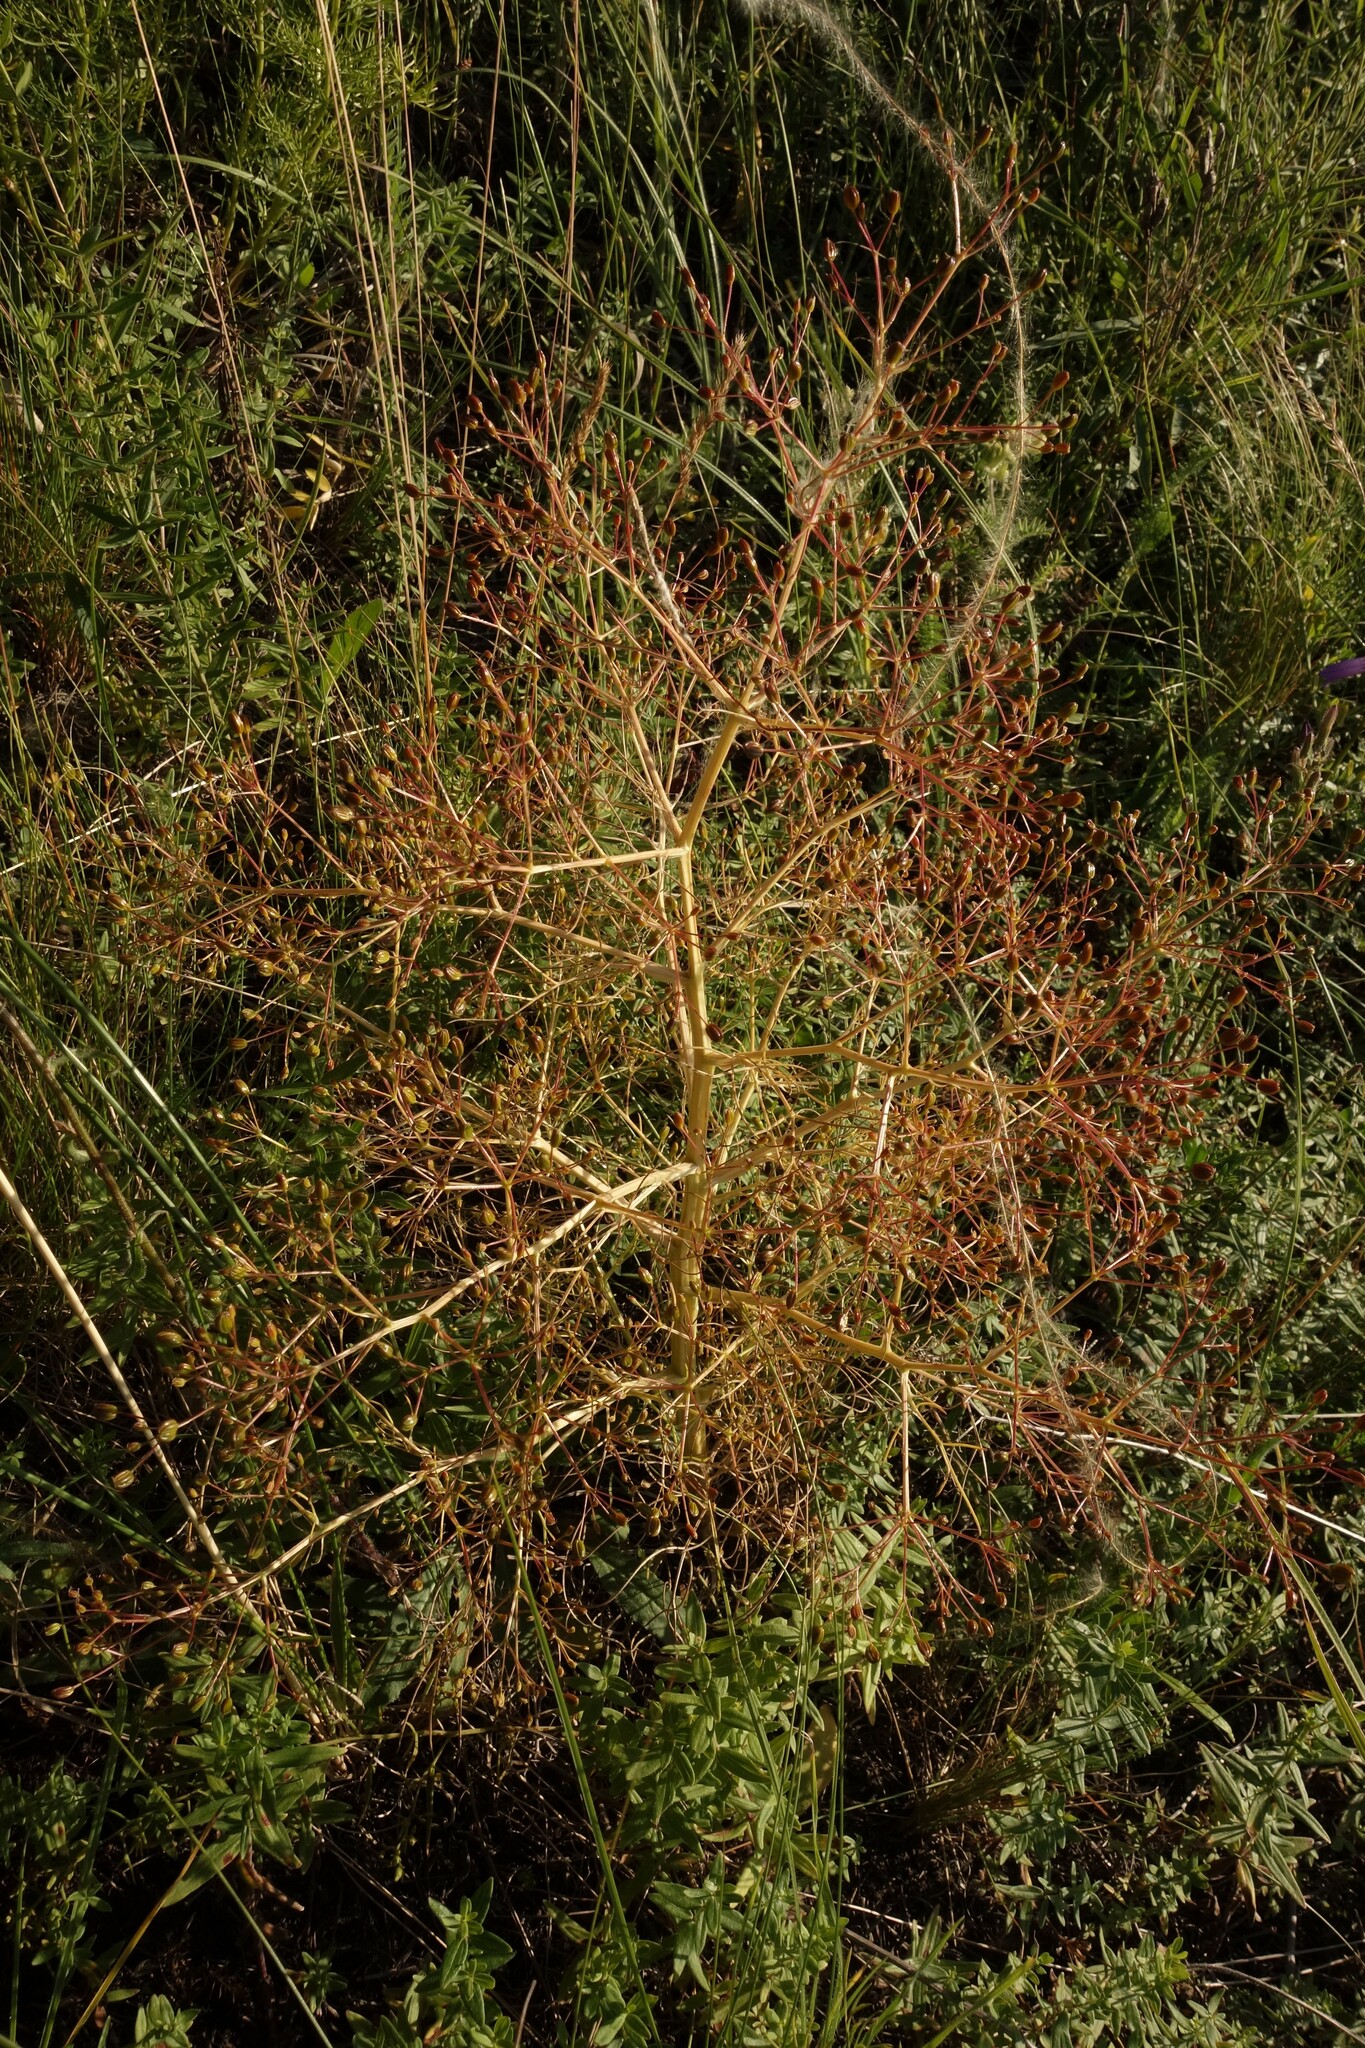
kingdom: Plantae
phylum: Tracheophyta
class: Magnoliopsida
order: Apiales
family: Apiaceae
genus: Trinia
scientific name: Trinia multicaulis
